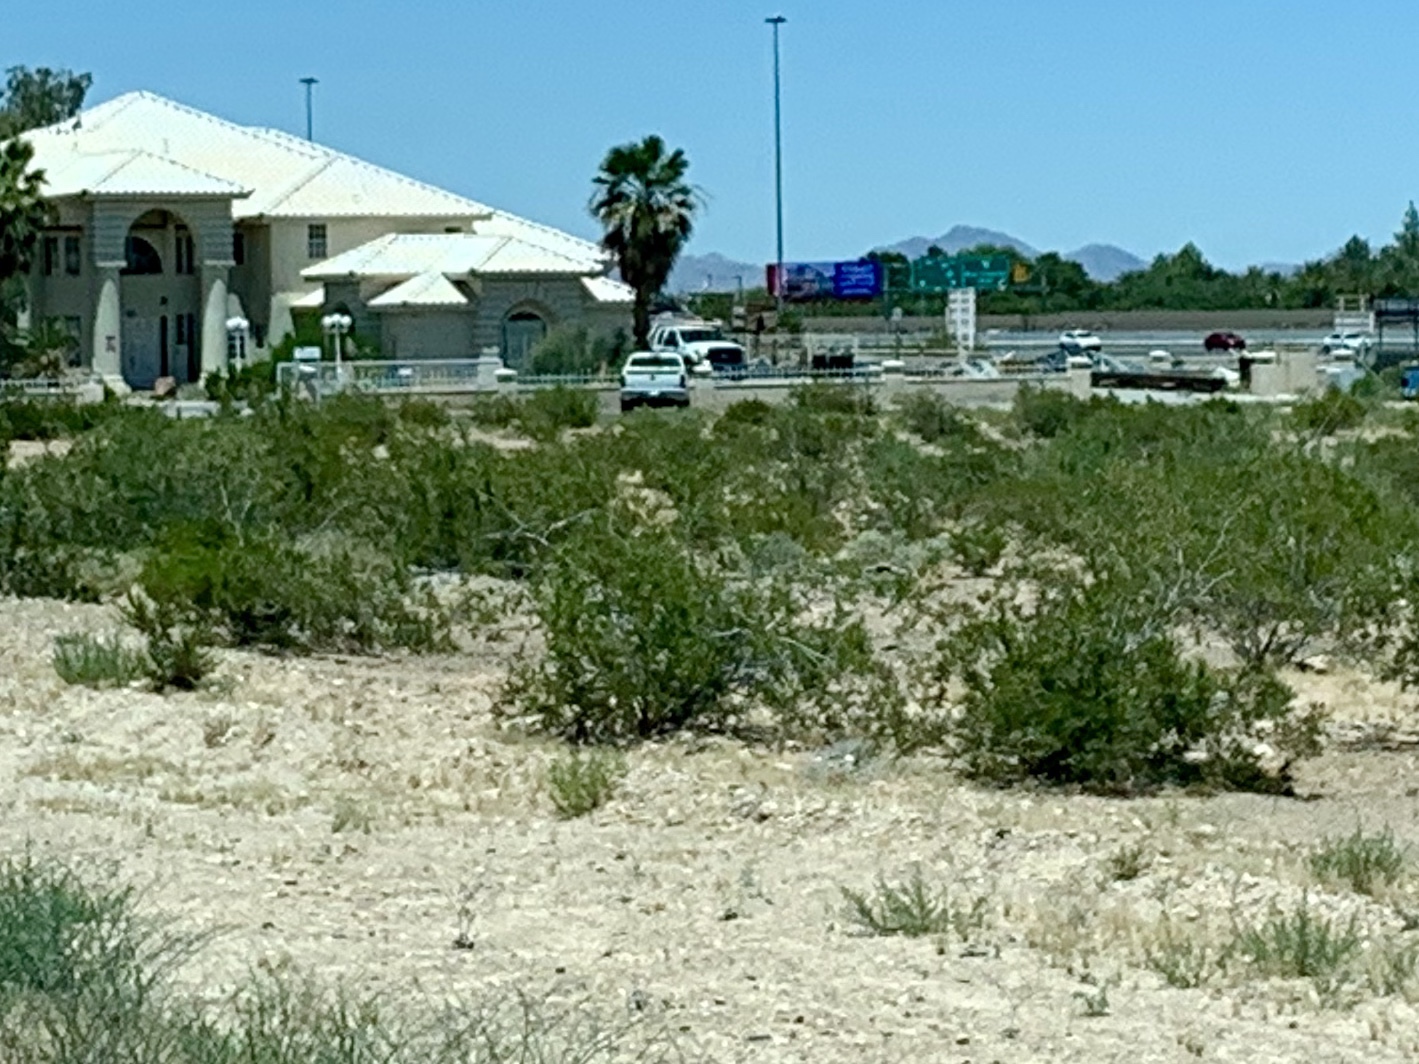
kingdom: Plantae
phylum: Tracheophyta
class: Magnoliopsida
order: Zygophyllales
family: Zygophyllaceae
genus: Larrea
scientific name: Larrea tridentata
